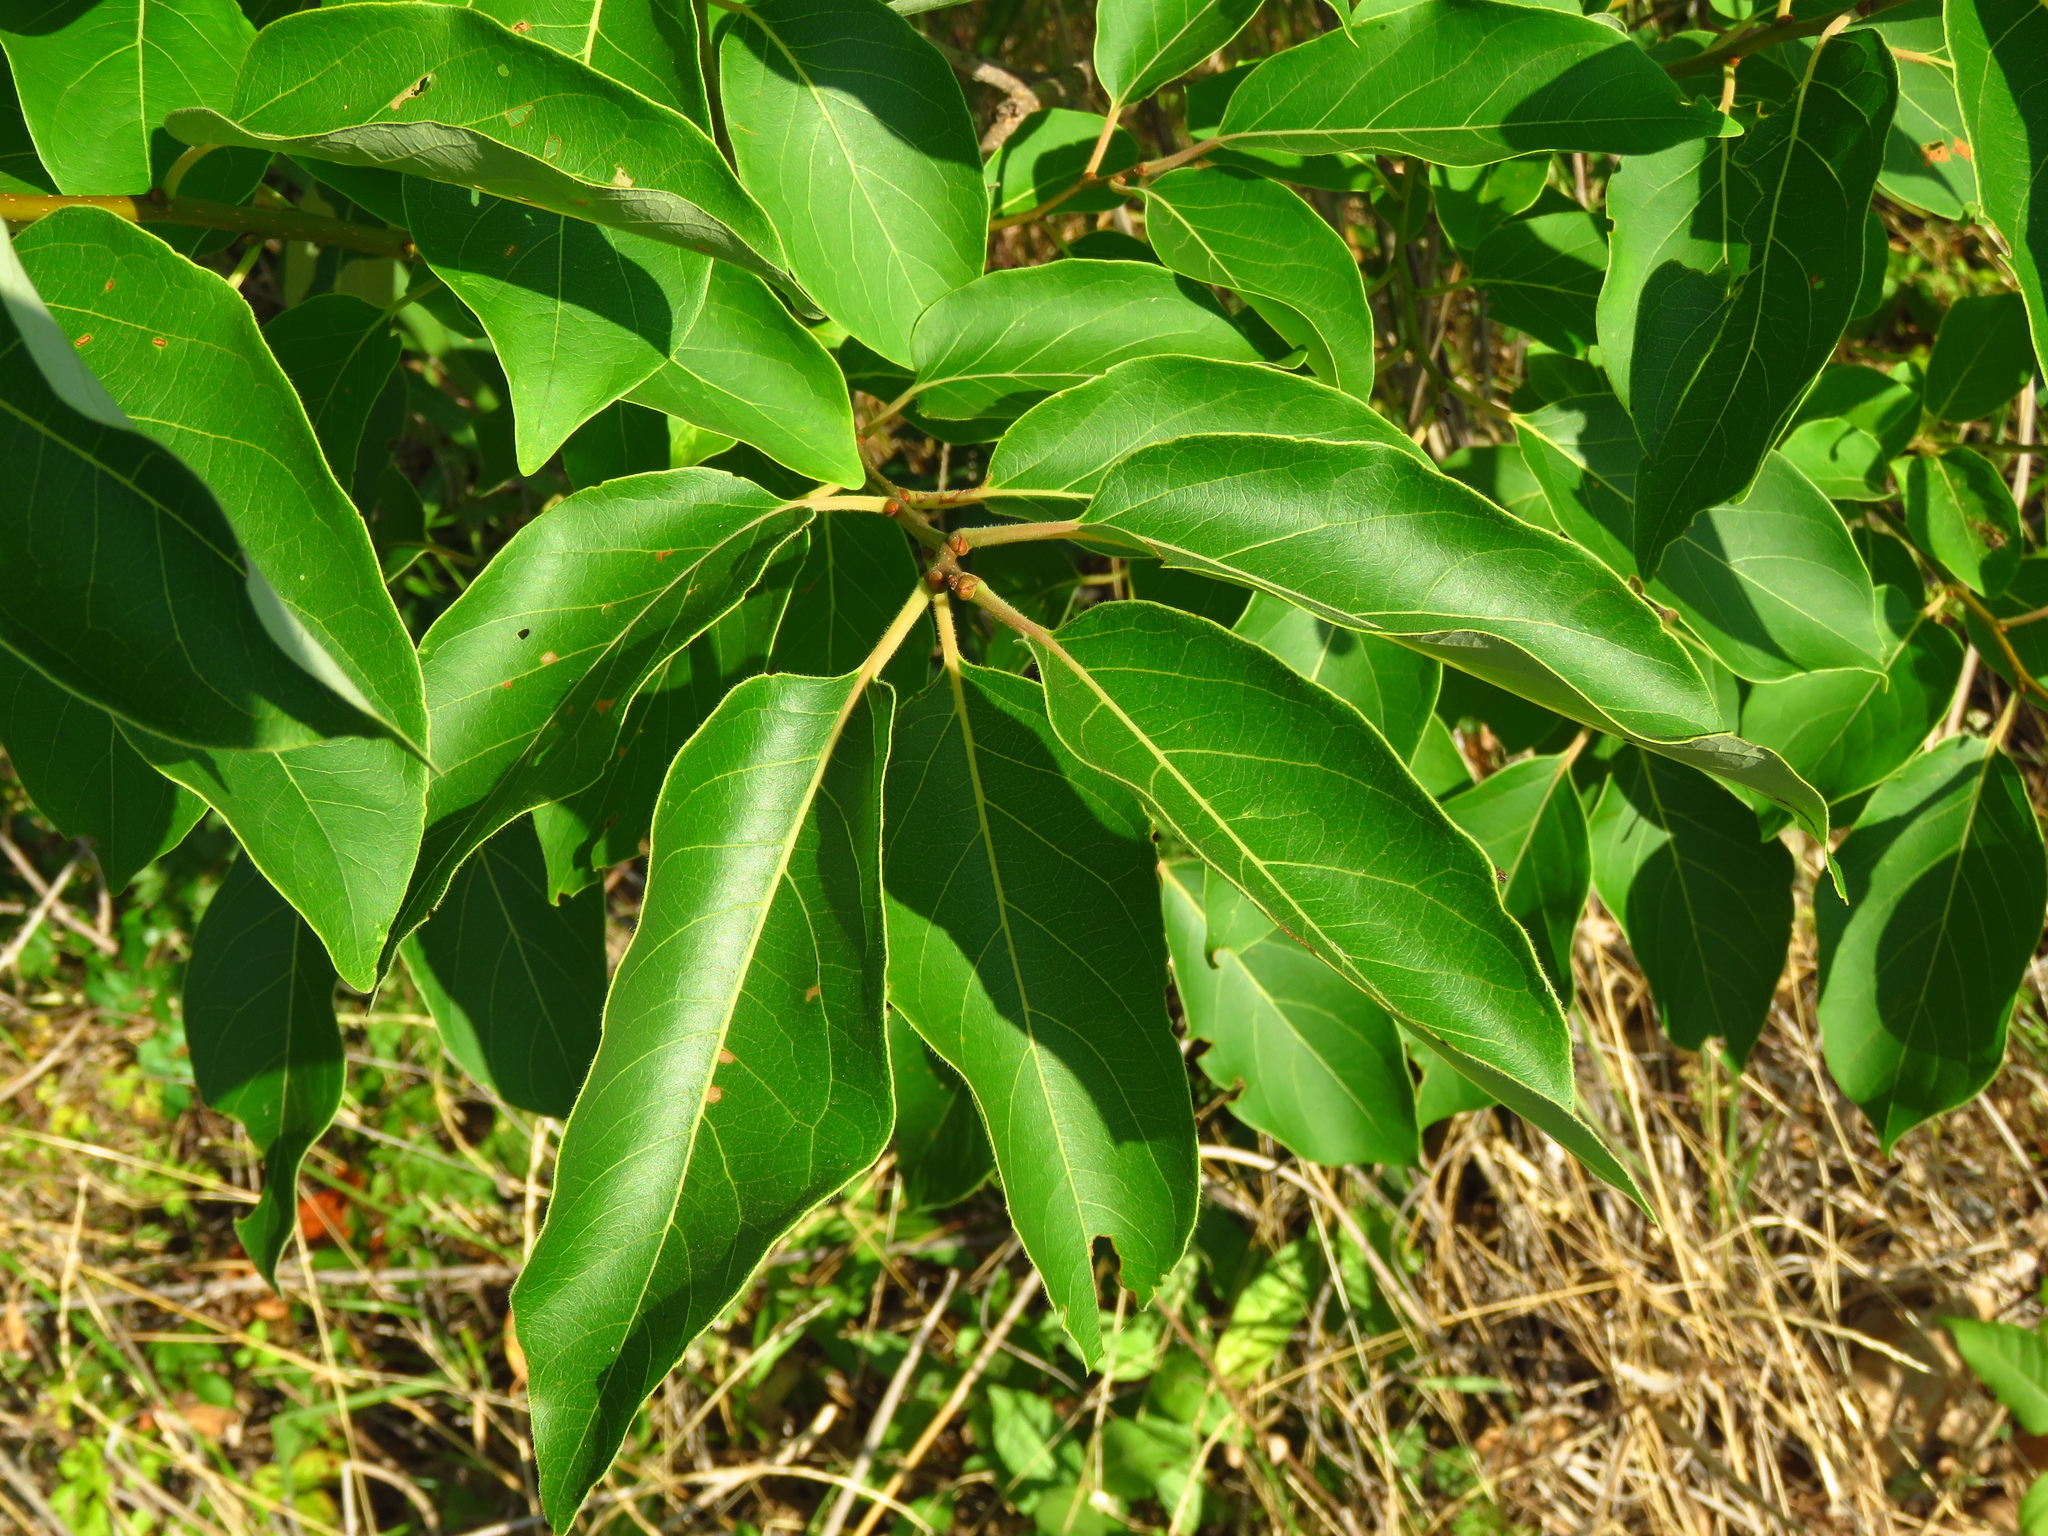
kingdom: Plantae
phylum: Tracheophyta
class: Magnoliopsida
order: Ericales
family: Ebenaceae
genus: Diospyros
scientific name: Diospyros virginiana
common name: Persimmon
